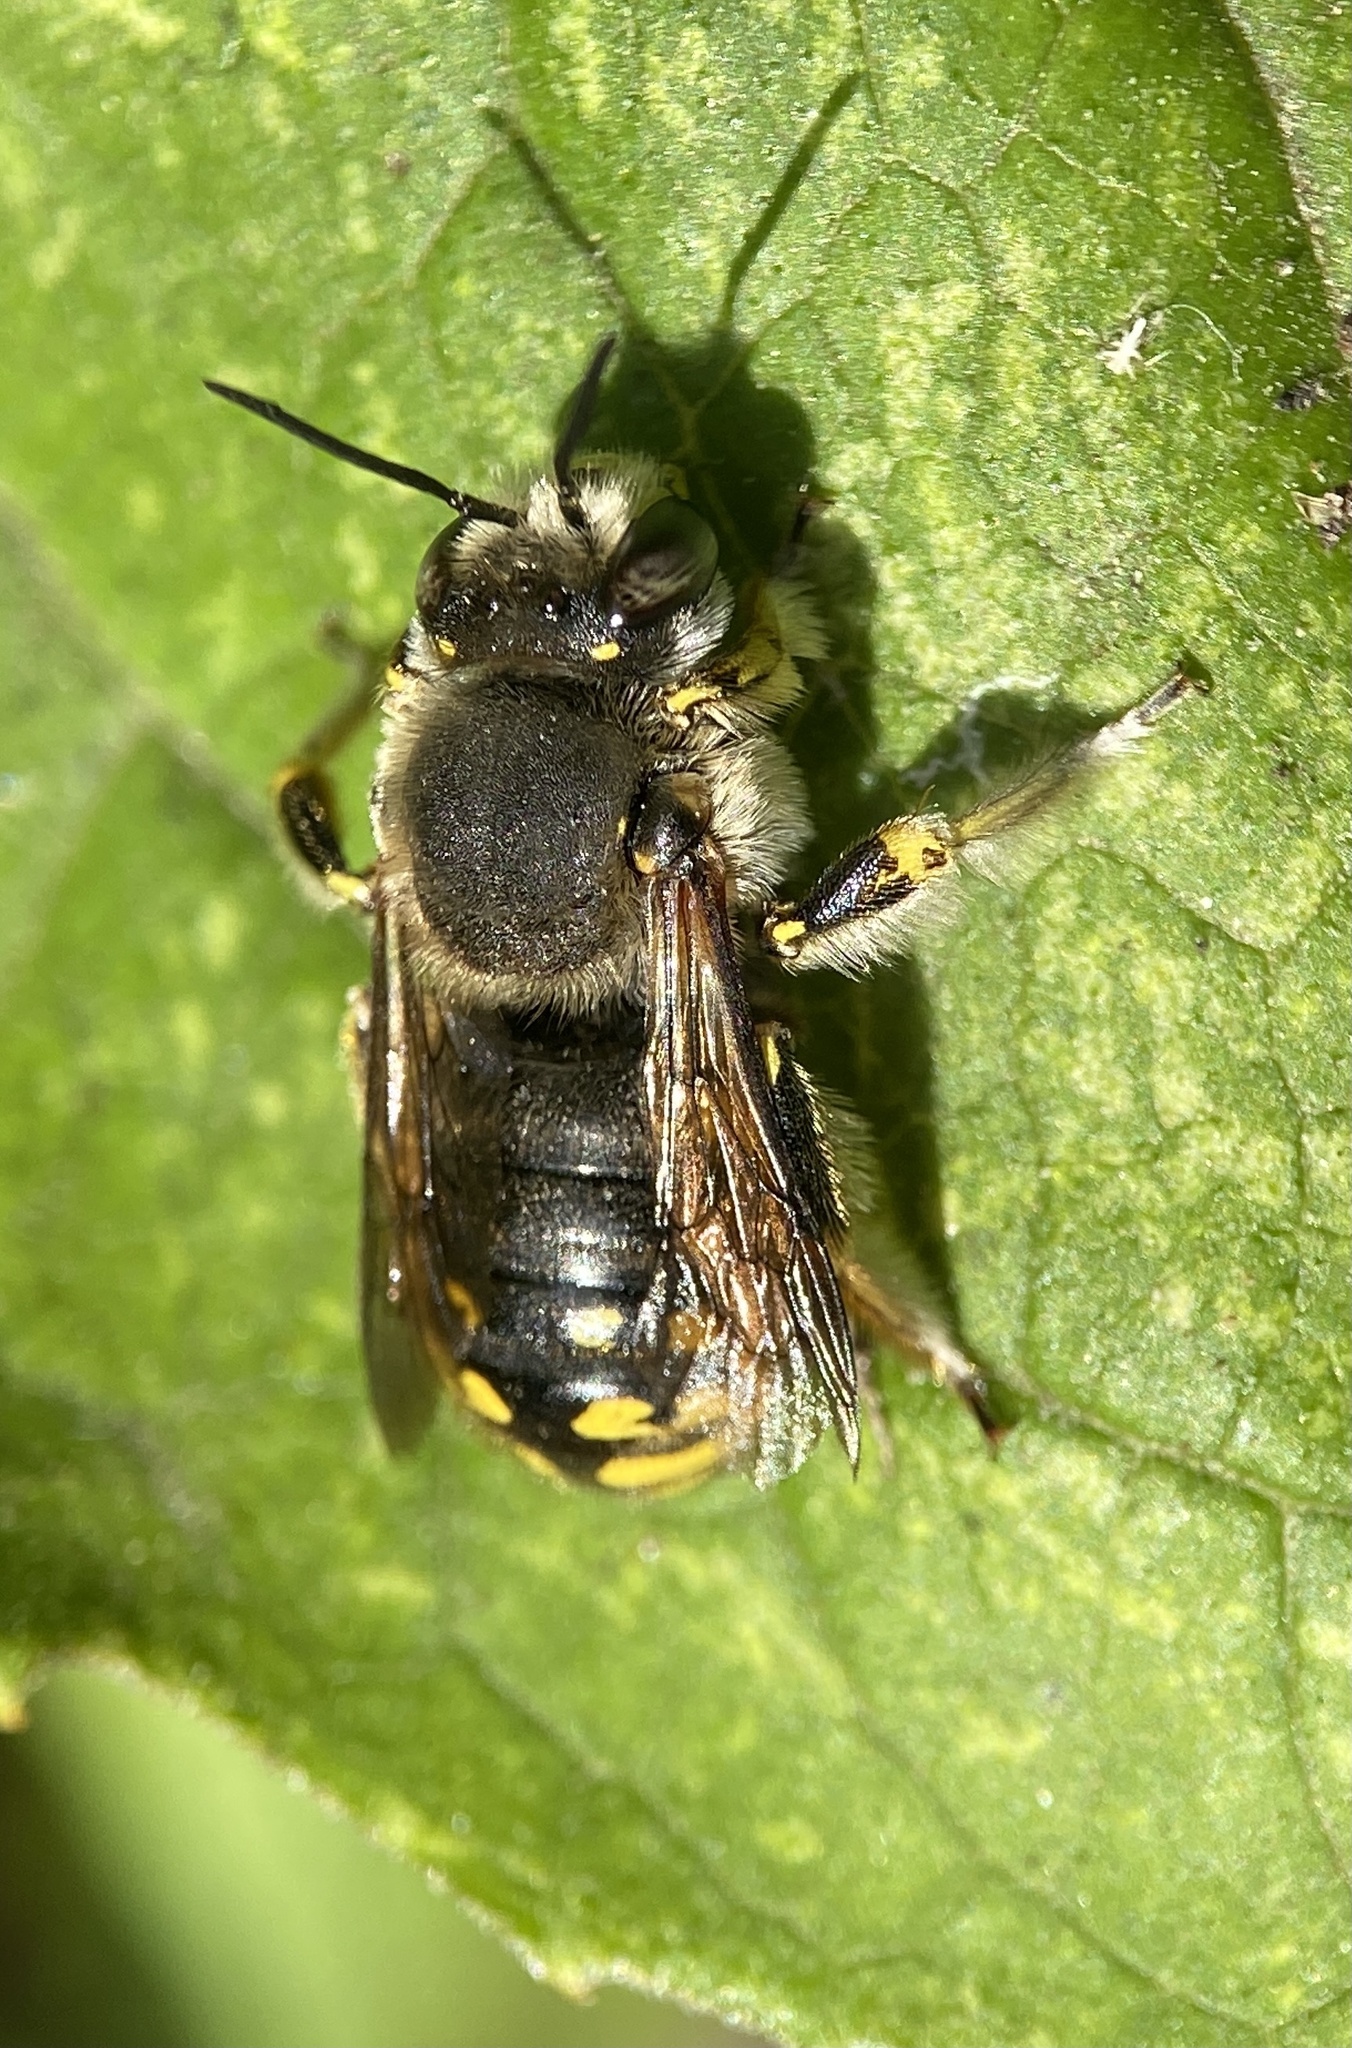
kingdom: Animalia
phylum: Arthropoda
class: Insecta
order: Hymenoptera
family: Megachilidae
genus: Anthidium
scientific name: Anthidium manicatum
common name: Wool carder bee
